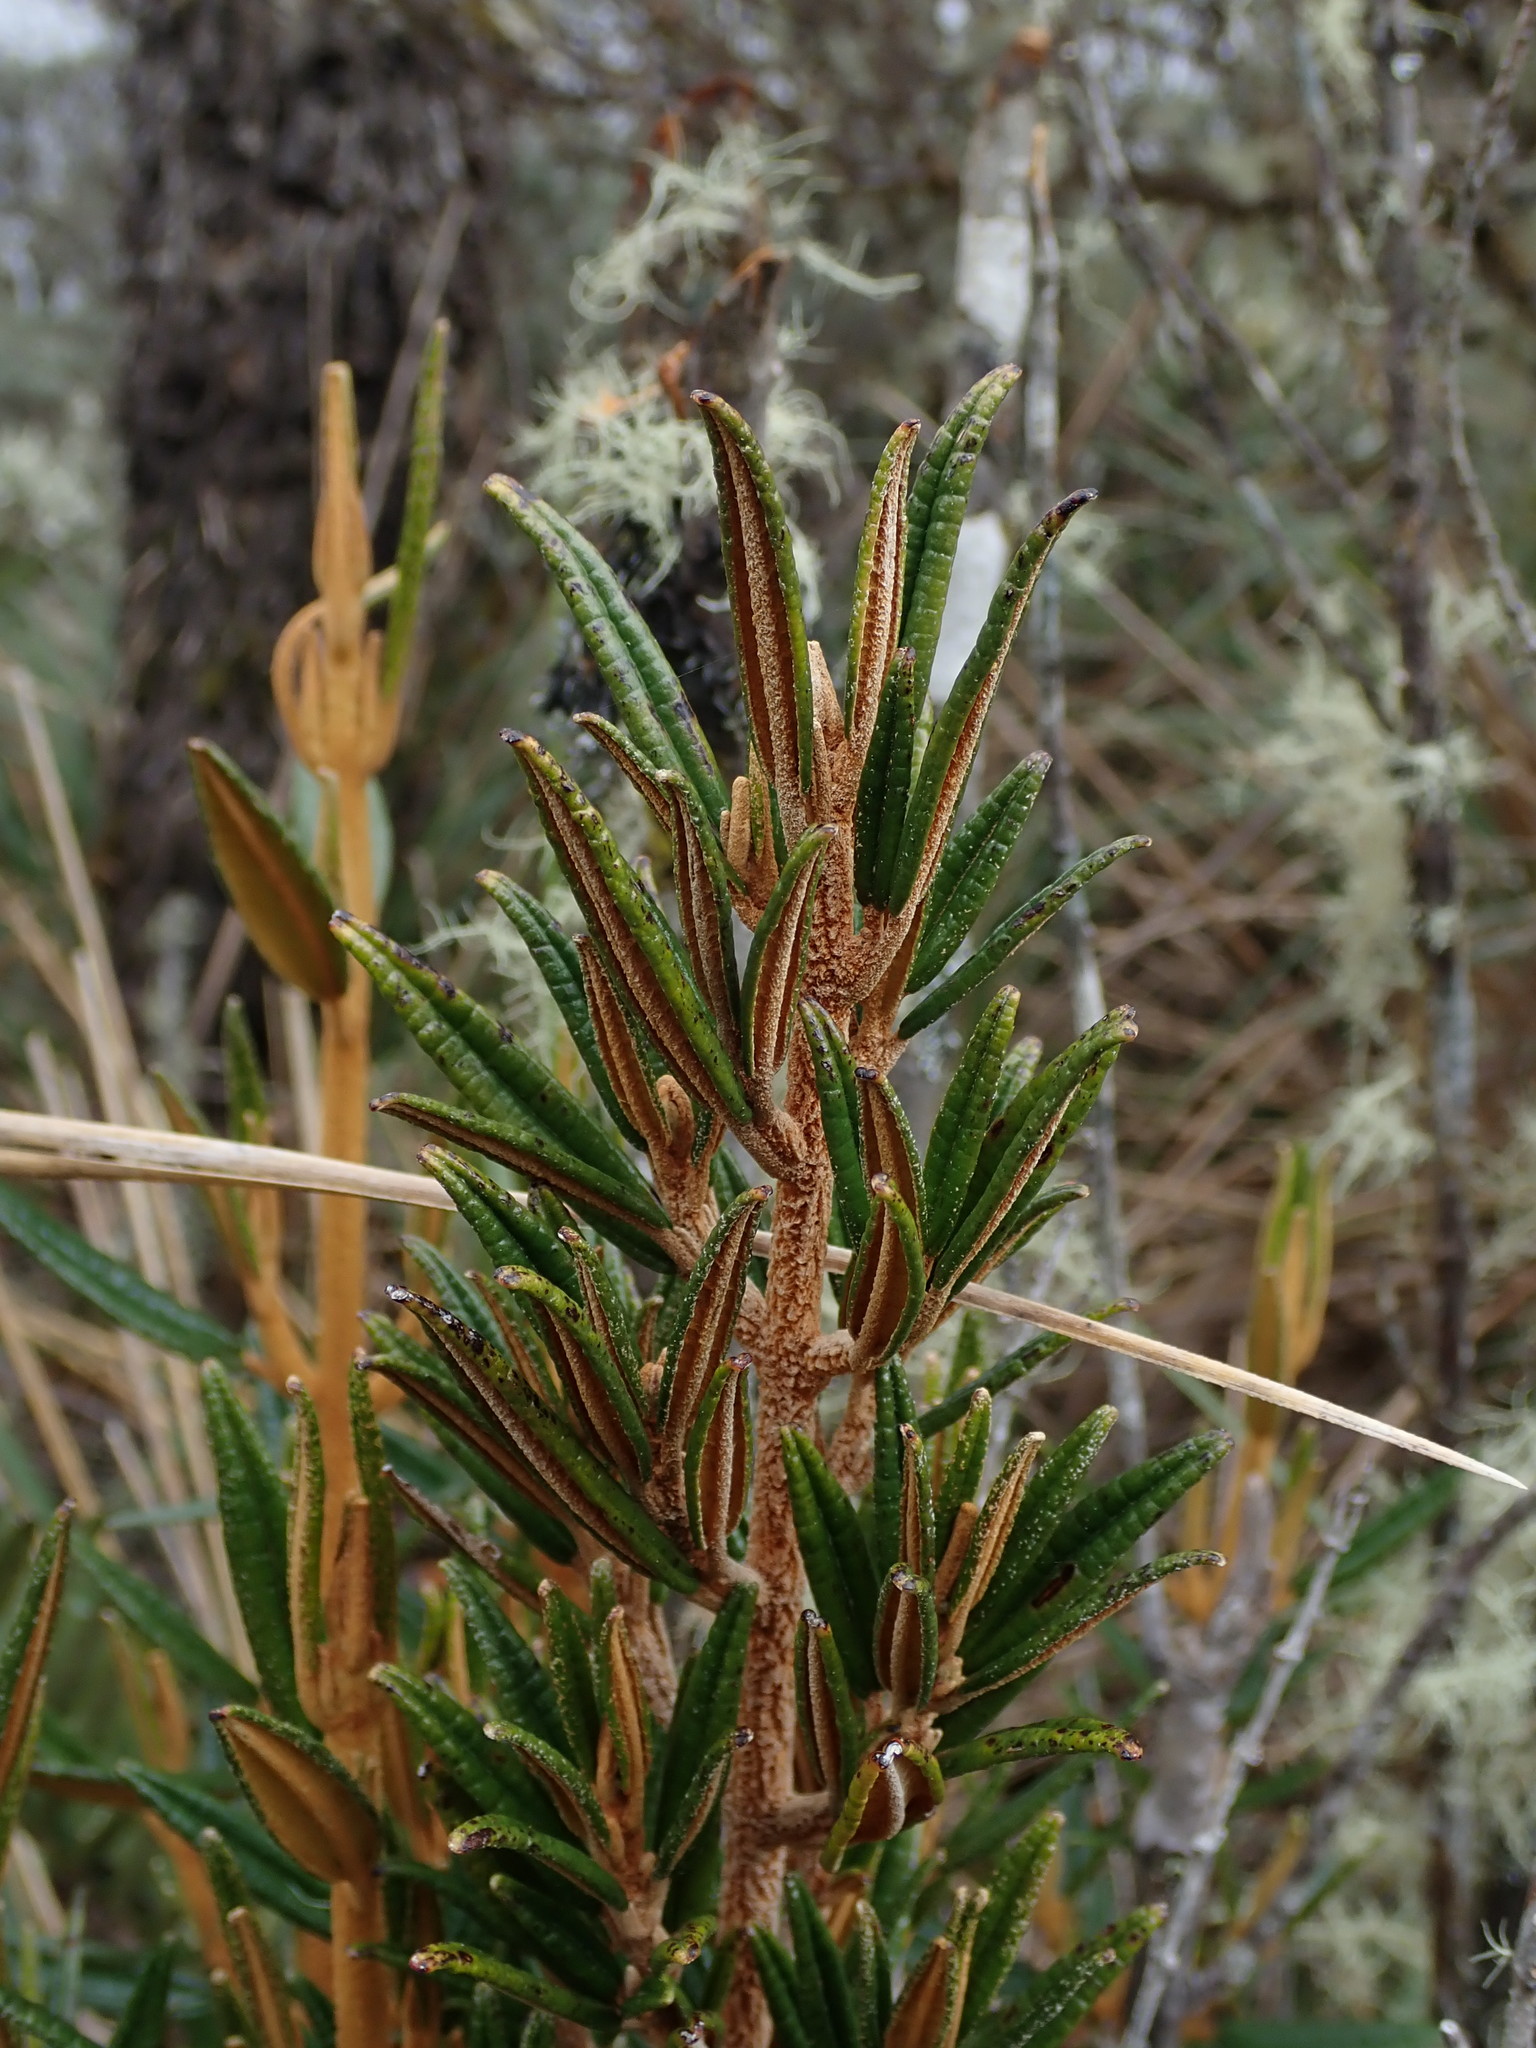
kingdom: Plantae
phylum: Tracheophyta
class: Magnoliopsida
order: Myrtales
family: Melastomataceae
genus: Miconia
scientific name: Miconia salicifolia
